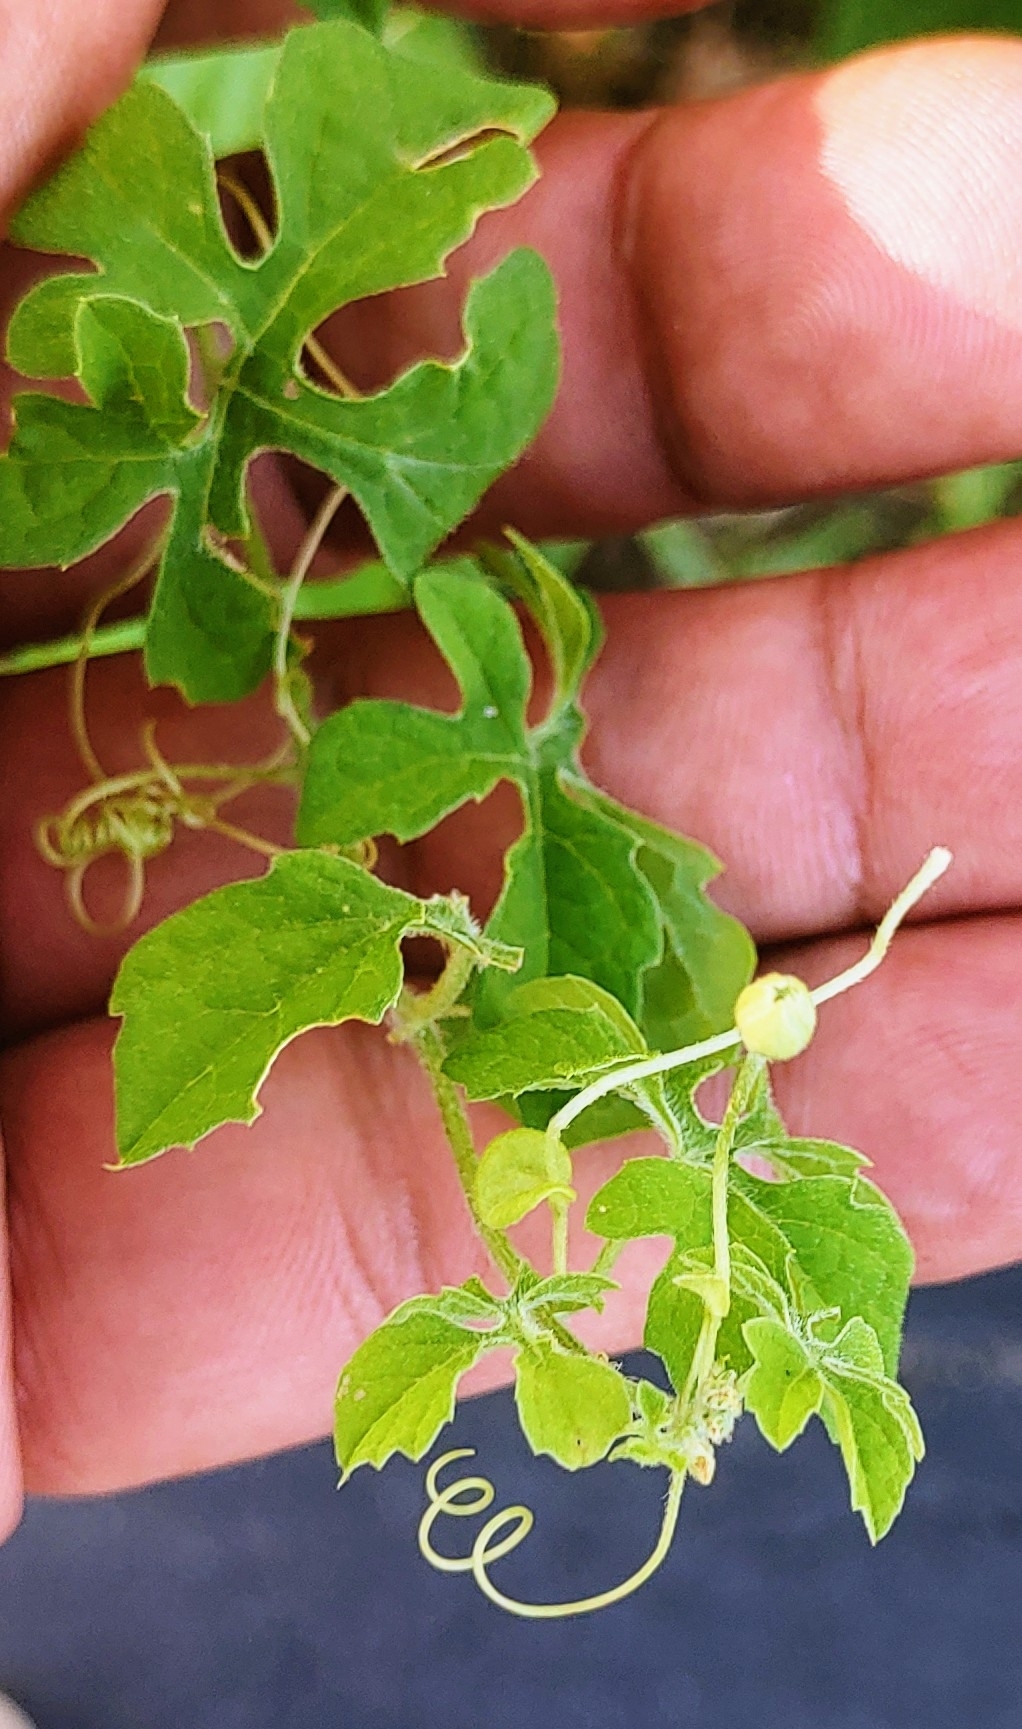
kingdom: Plantae
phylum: Tracheophyta
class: Magnoliopsida
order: Cucurbitales
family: Cucurbitaceae
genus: Momordica
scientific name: Momordica charantia
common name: Balsampear
